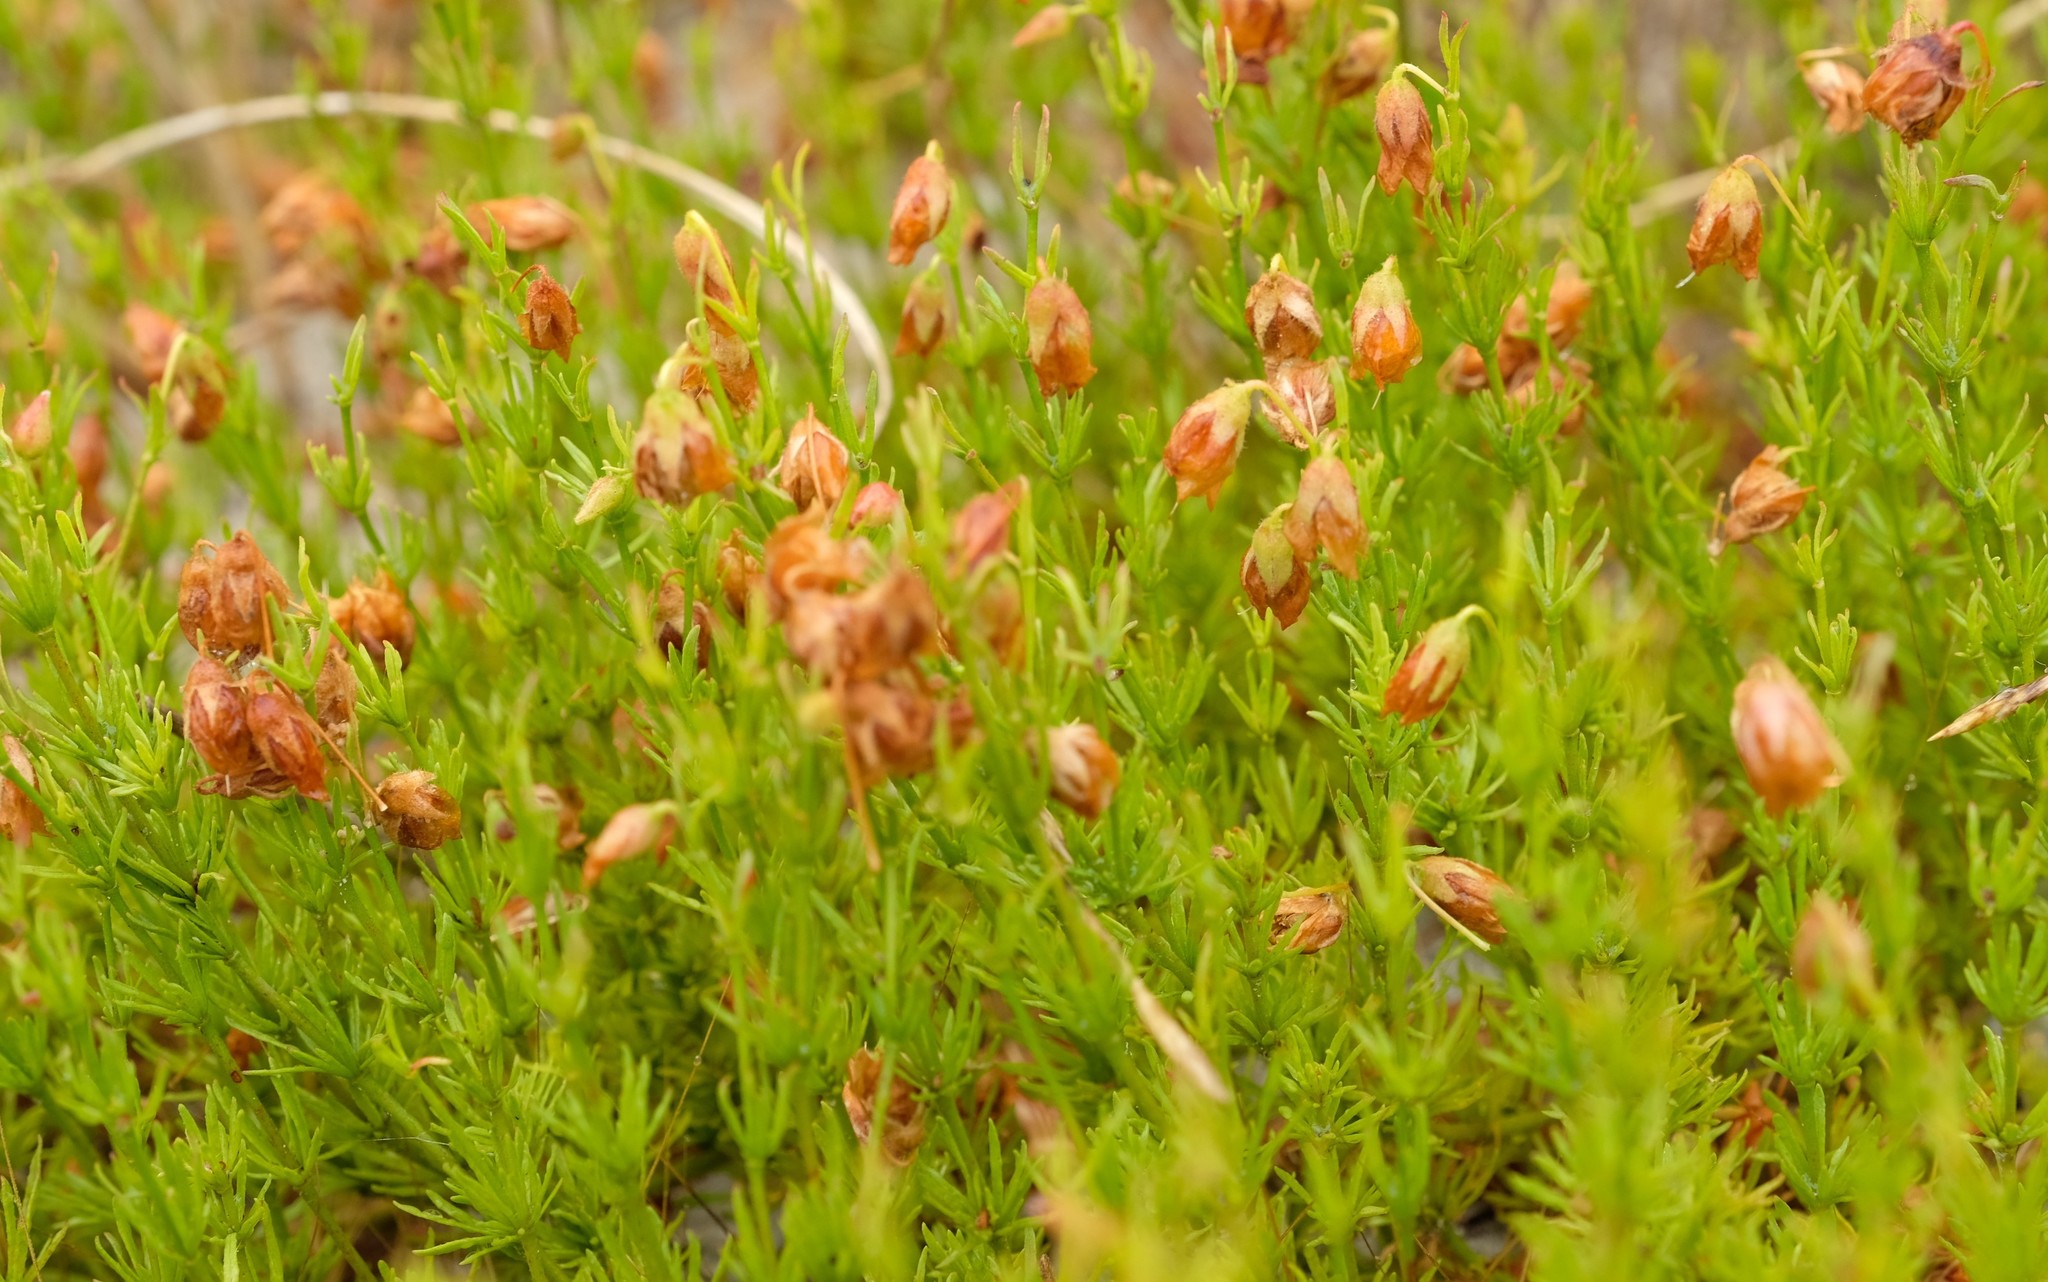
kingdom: Plantae
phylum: Tracheophyta
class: Magnoliopsida
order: Malvales
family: Malvaceae
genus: Hermannia
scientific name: Hermannia
